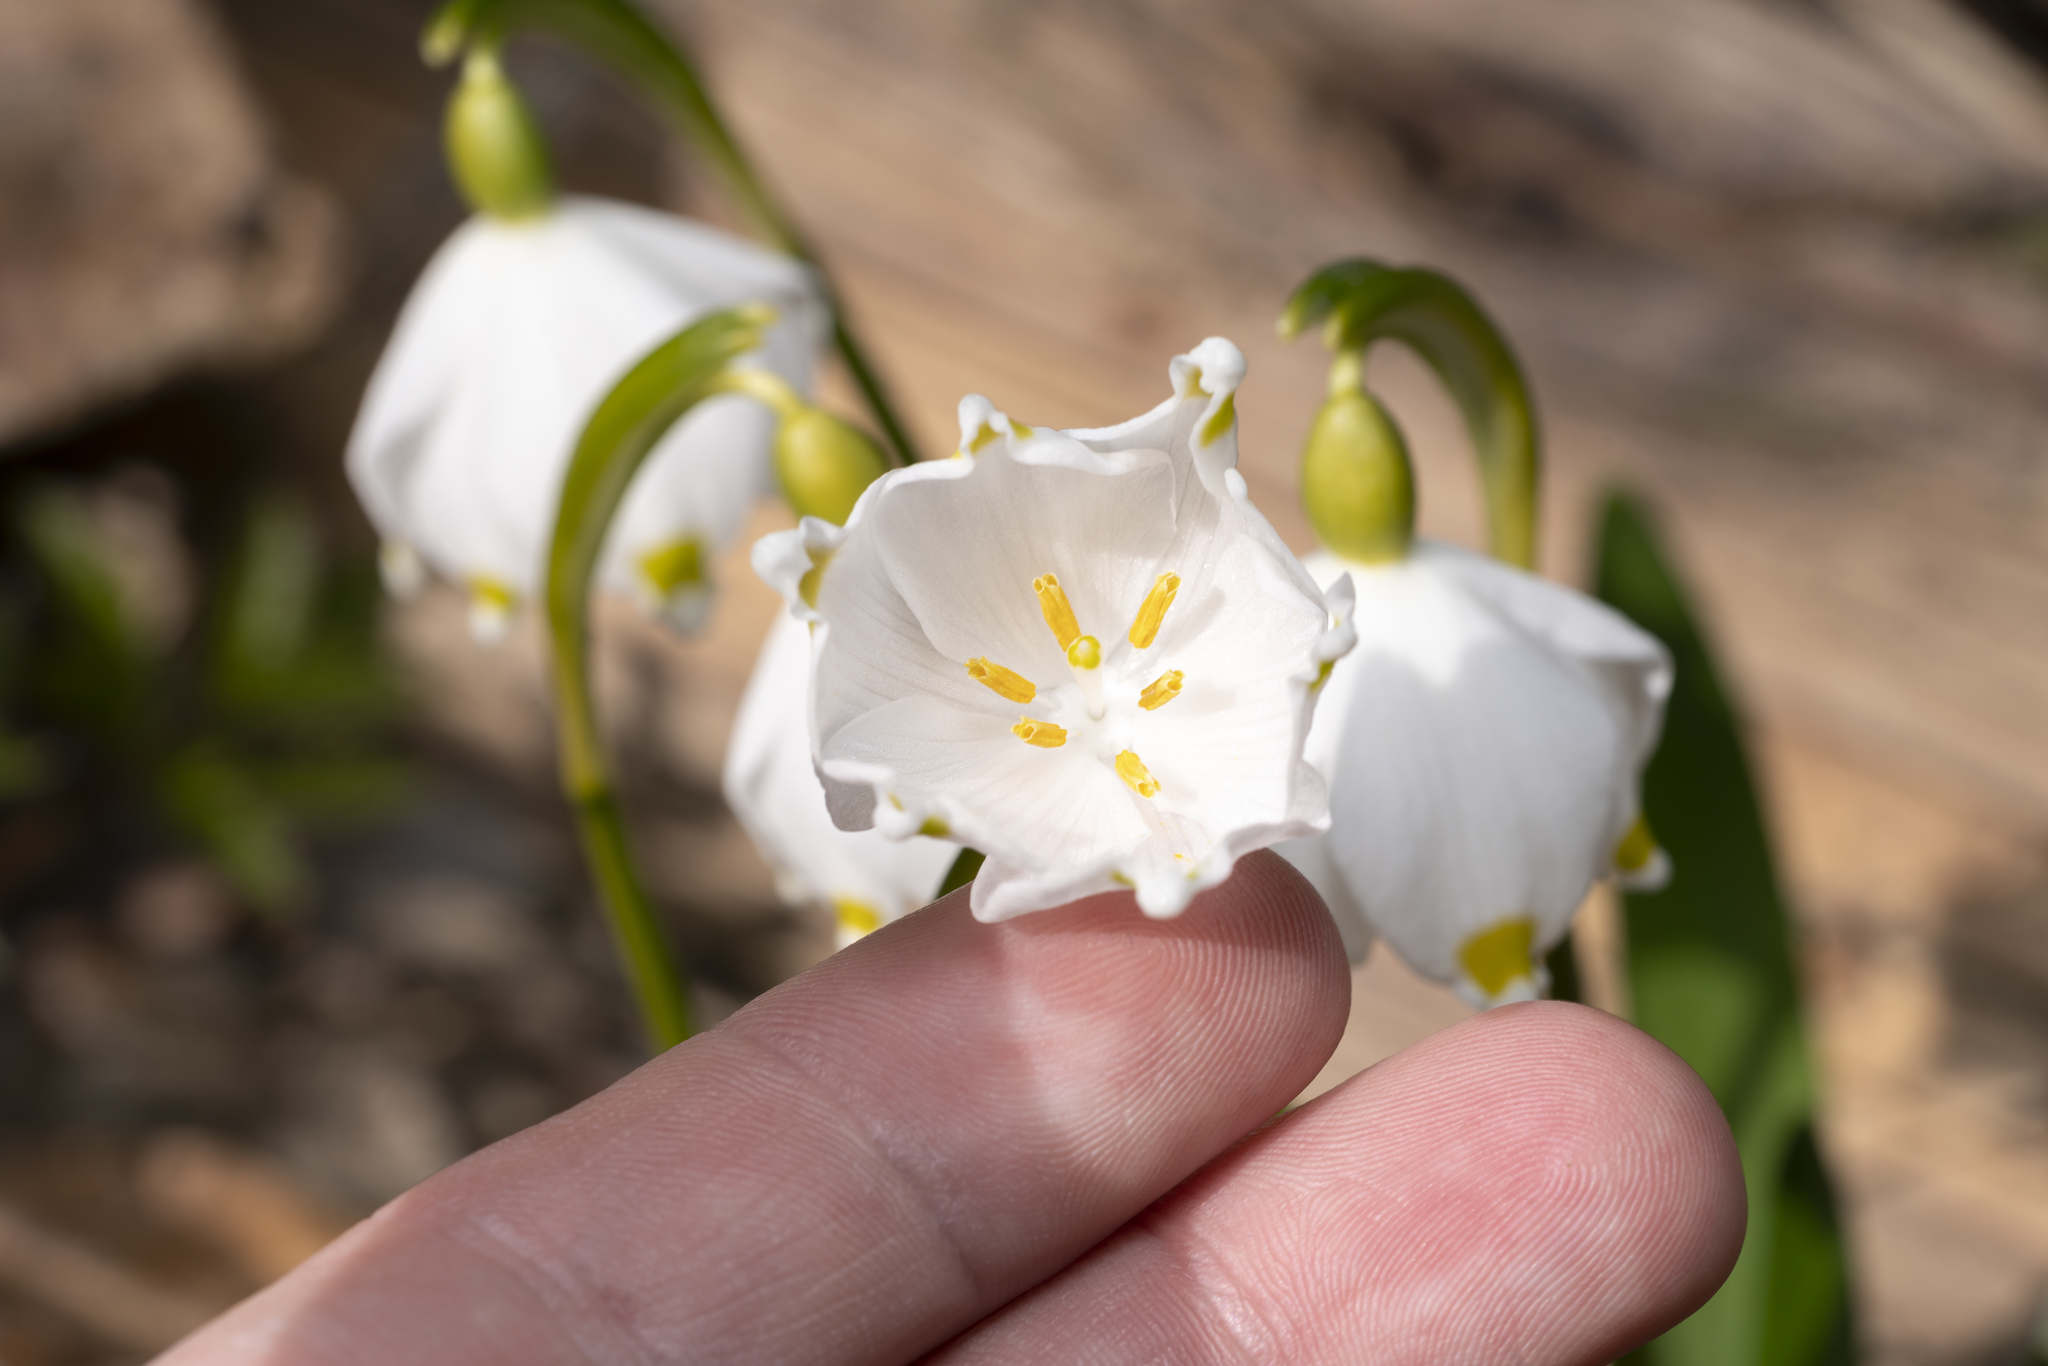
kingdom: Plantae
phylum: Tracheophyta
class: Liliopsida
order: Asparagales
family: Amaryllidaceae
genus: Leucojum
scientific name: Leucojum vernum
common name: Spring snowflake
